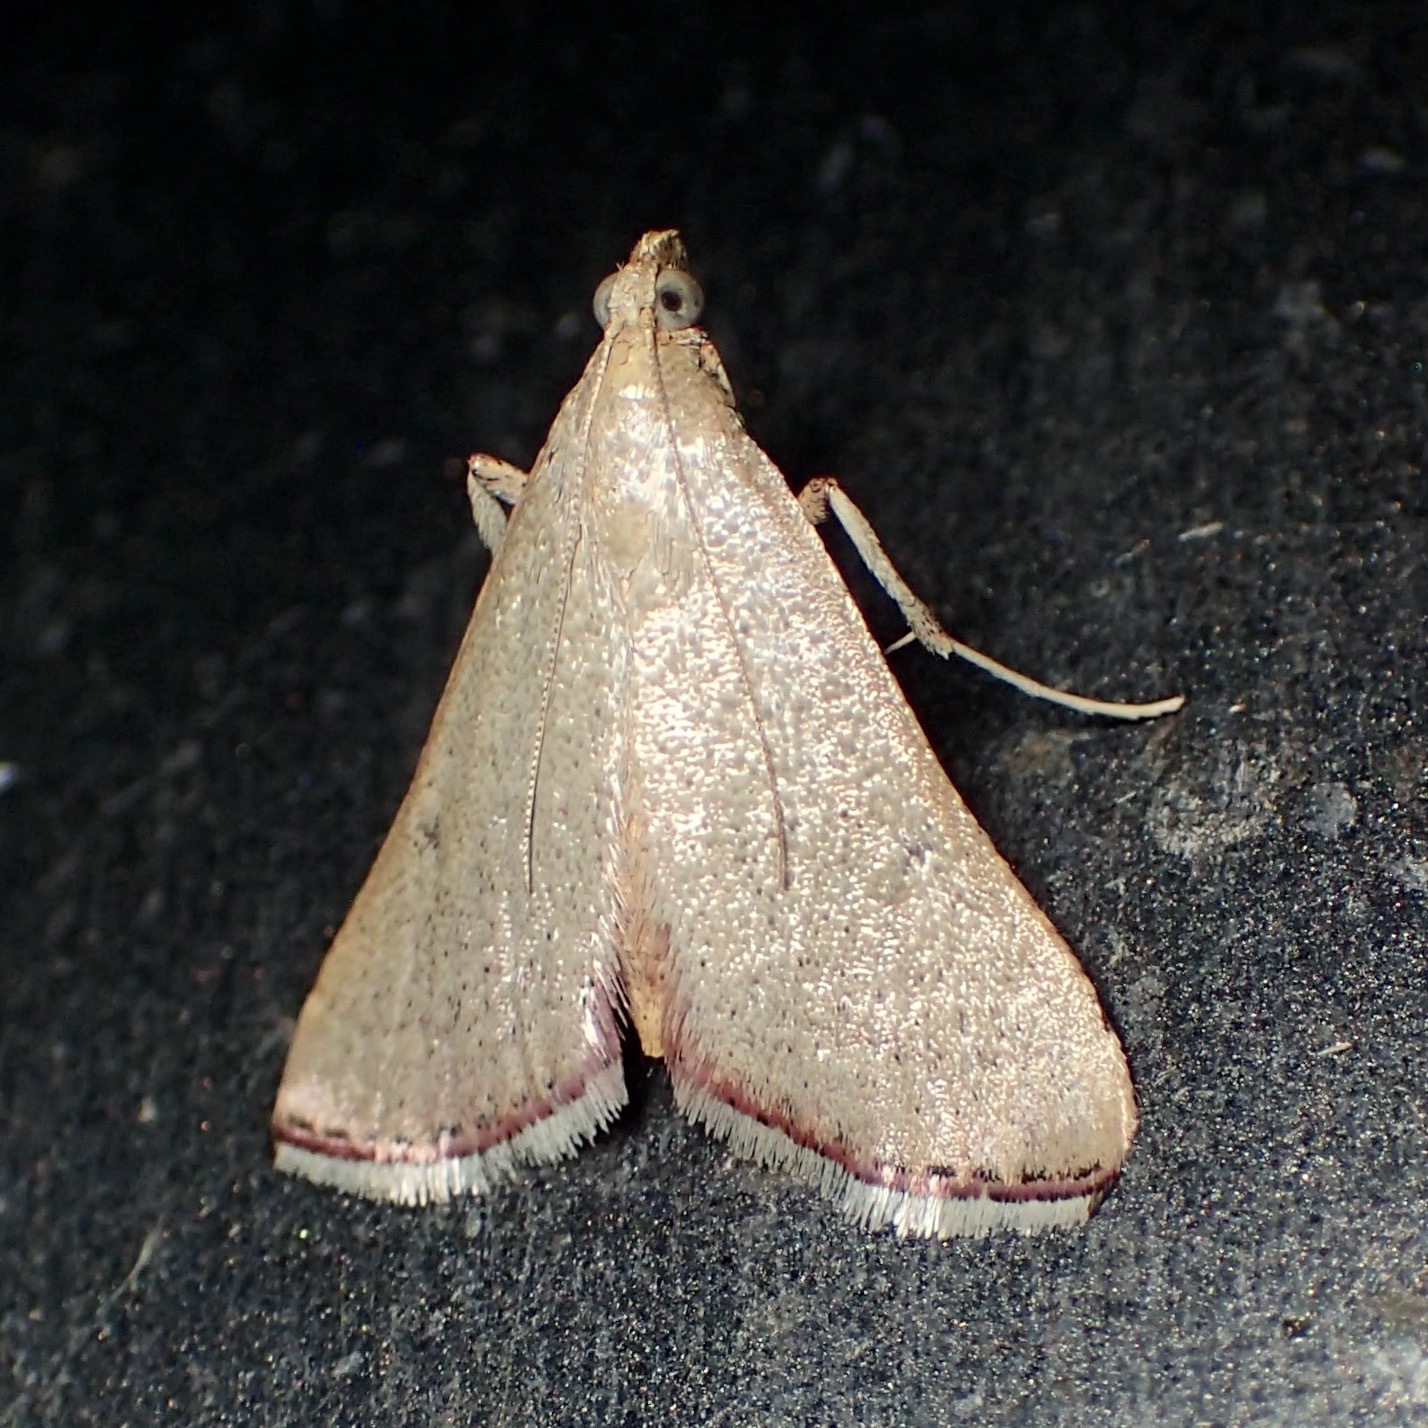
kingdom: Animalia
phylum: Arthropoda
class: Insecta
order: Lepidoptera
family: Pyralidae
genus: Endotricha
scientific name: Endotricha pyrosalis
